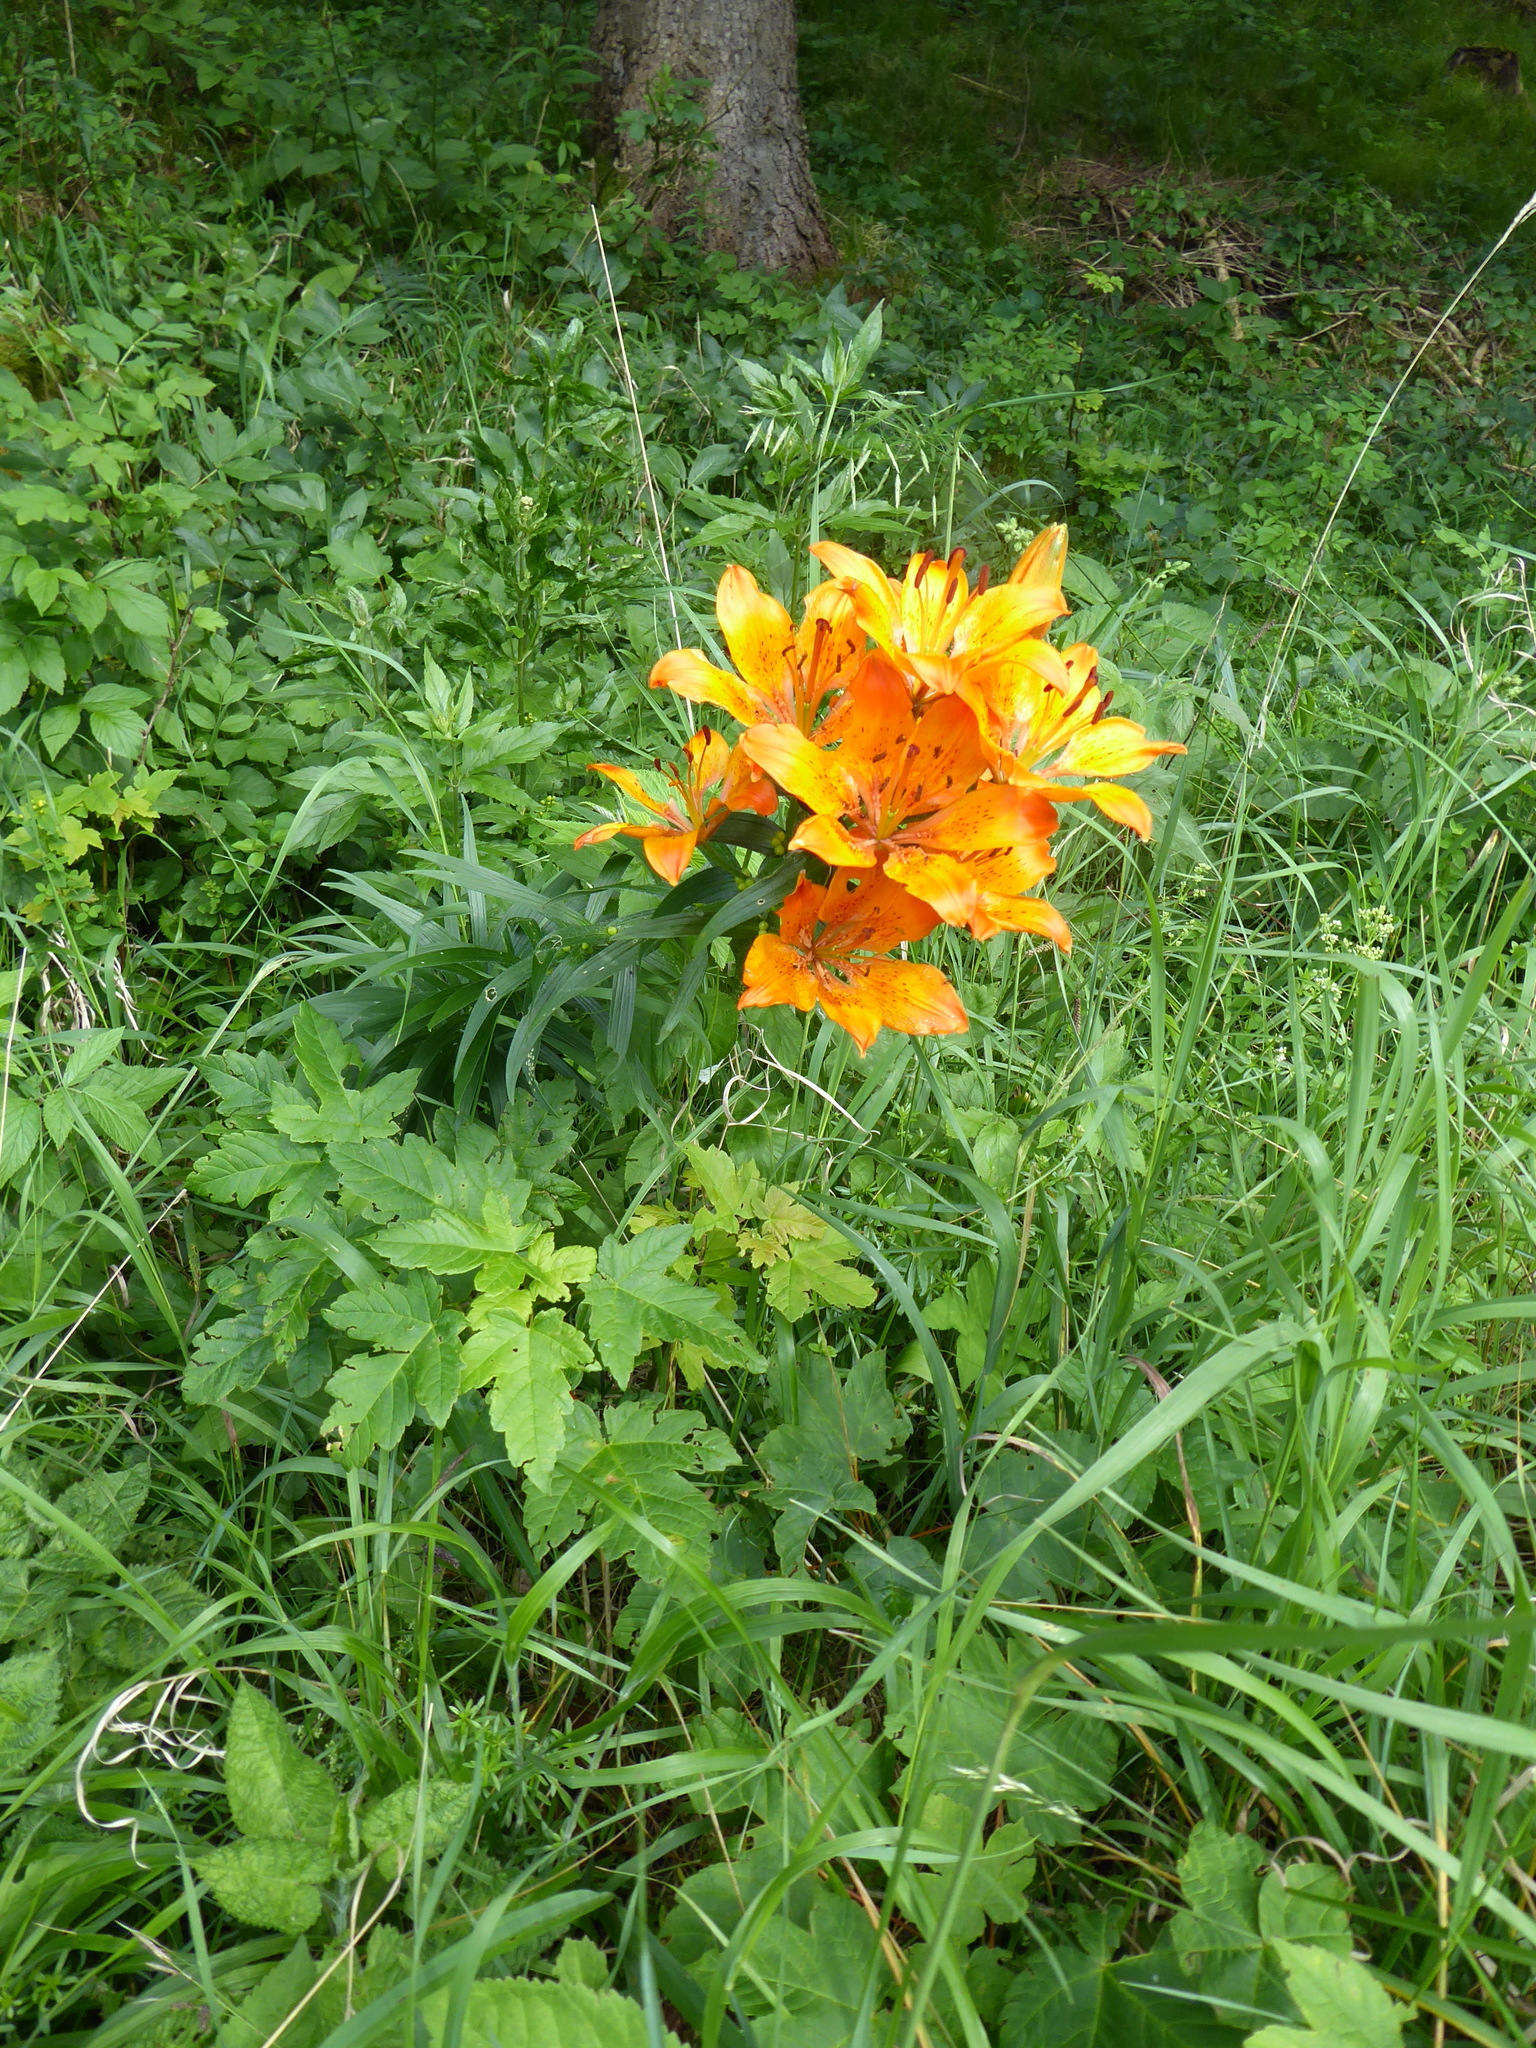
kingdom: Plantae
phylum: Tracheophyta
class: Liliopsida
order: Liliales
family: Liliaceae
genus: Lilium
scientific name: Lilium bulbiferum
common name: Orange lily
